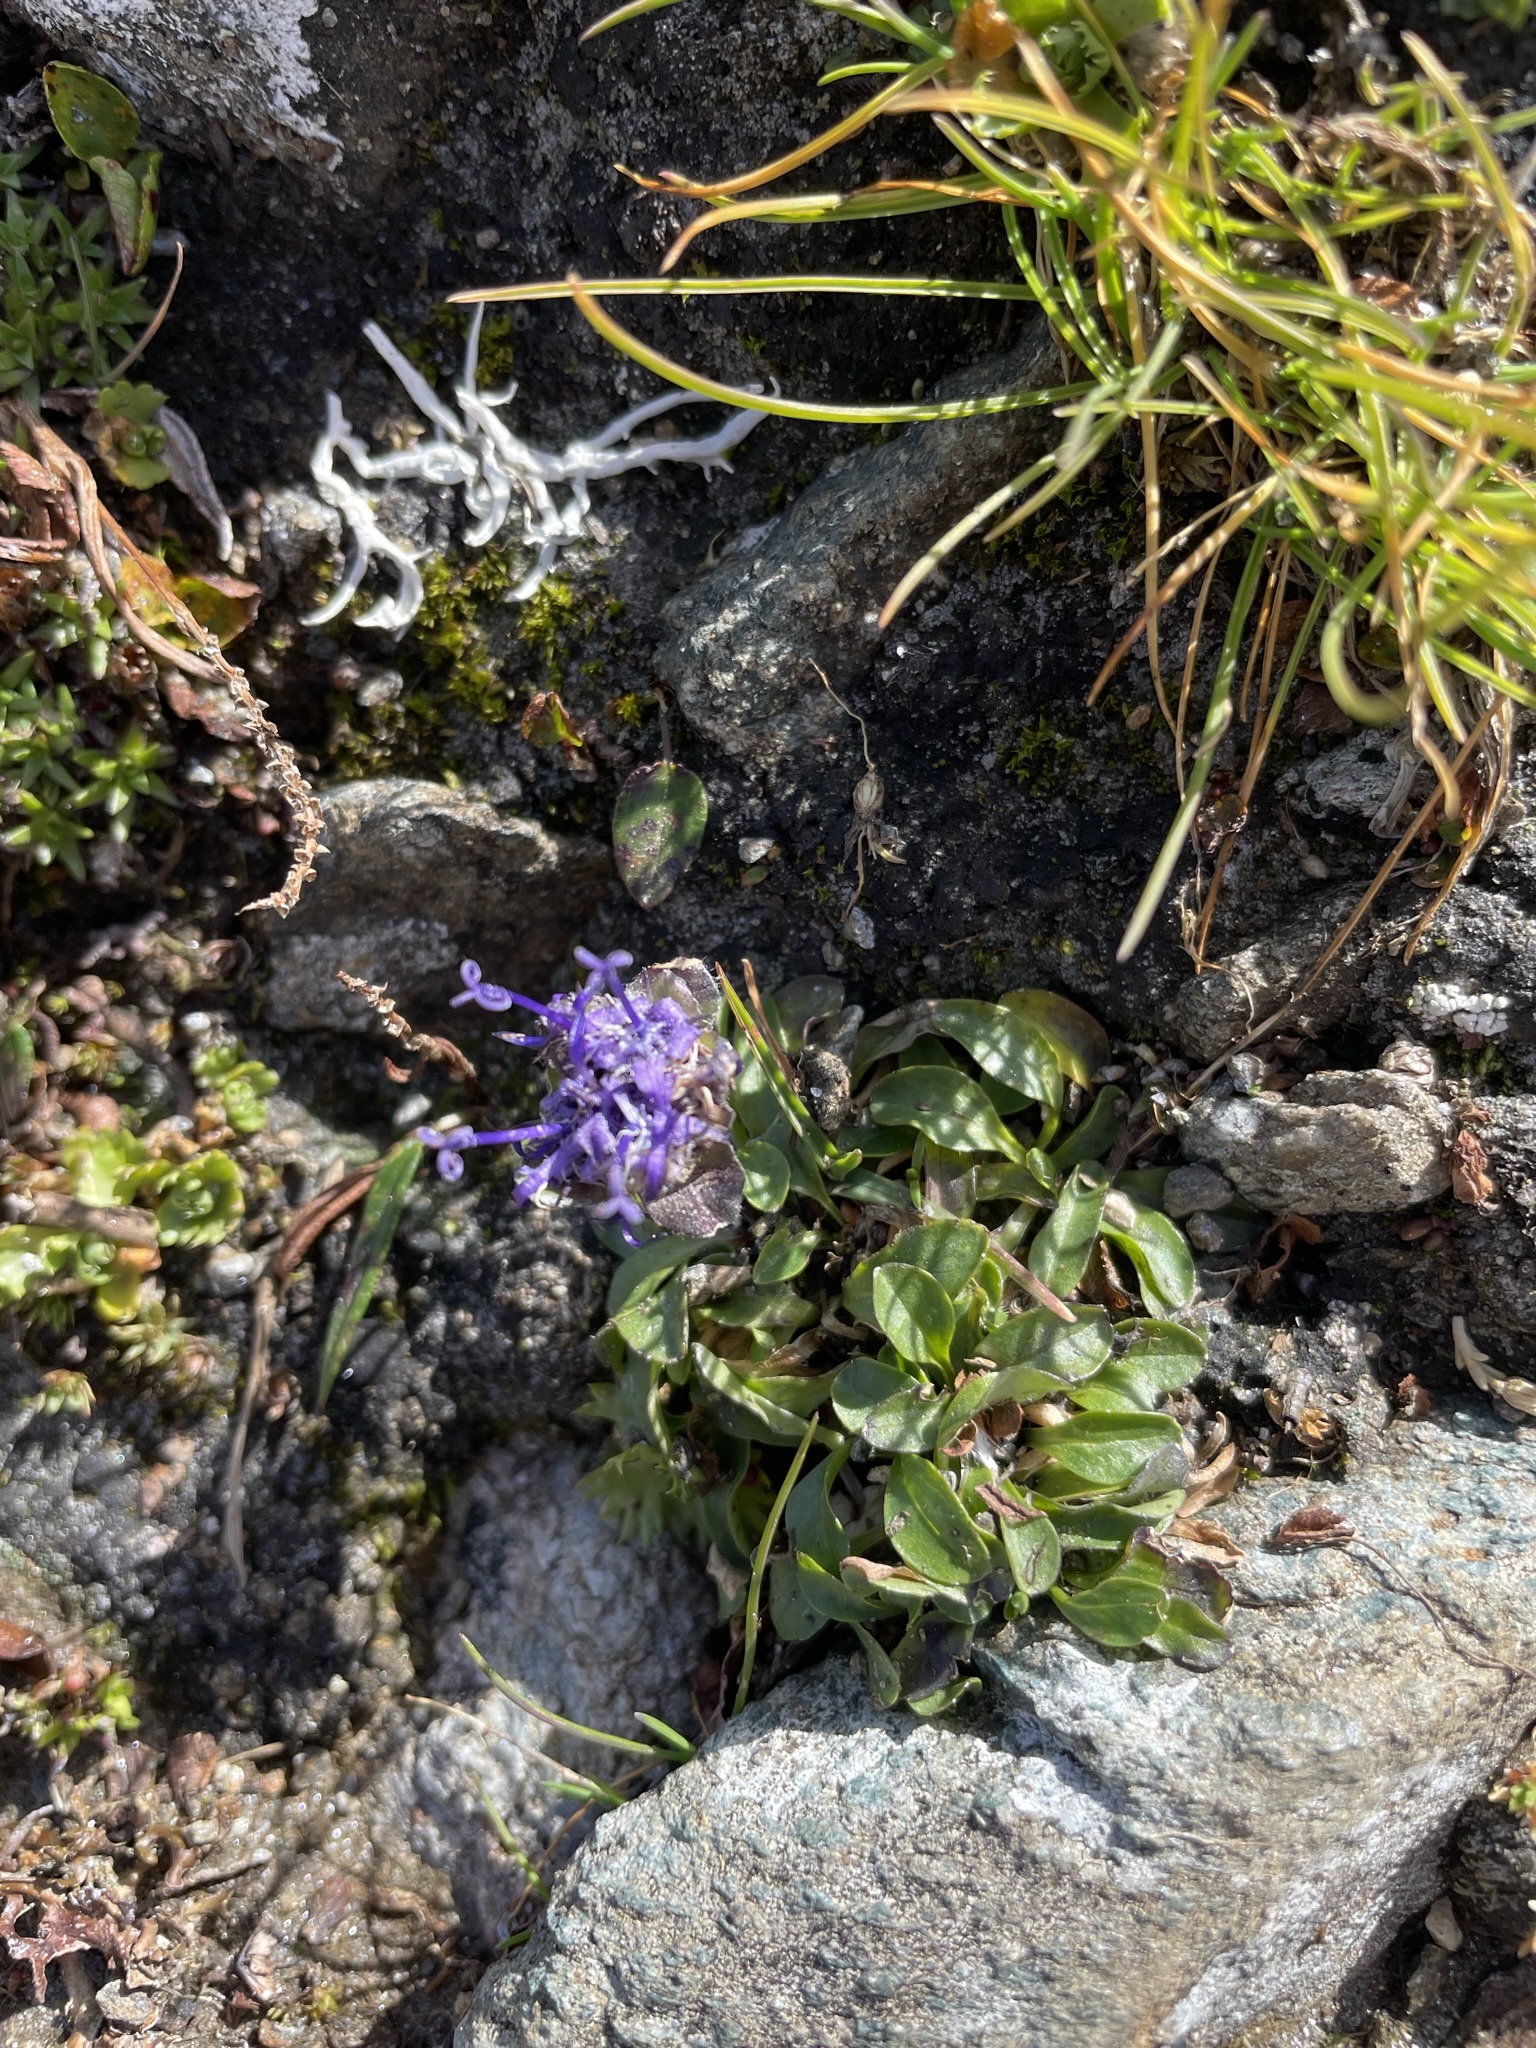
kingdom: Plantae
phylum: Tracheophyta
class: Magnoliopsida
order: Asterales
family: Campanulaceae
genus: Phyteuma
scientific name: Phyteuma globulariifolium
